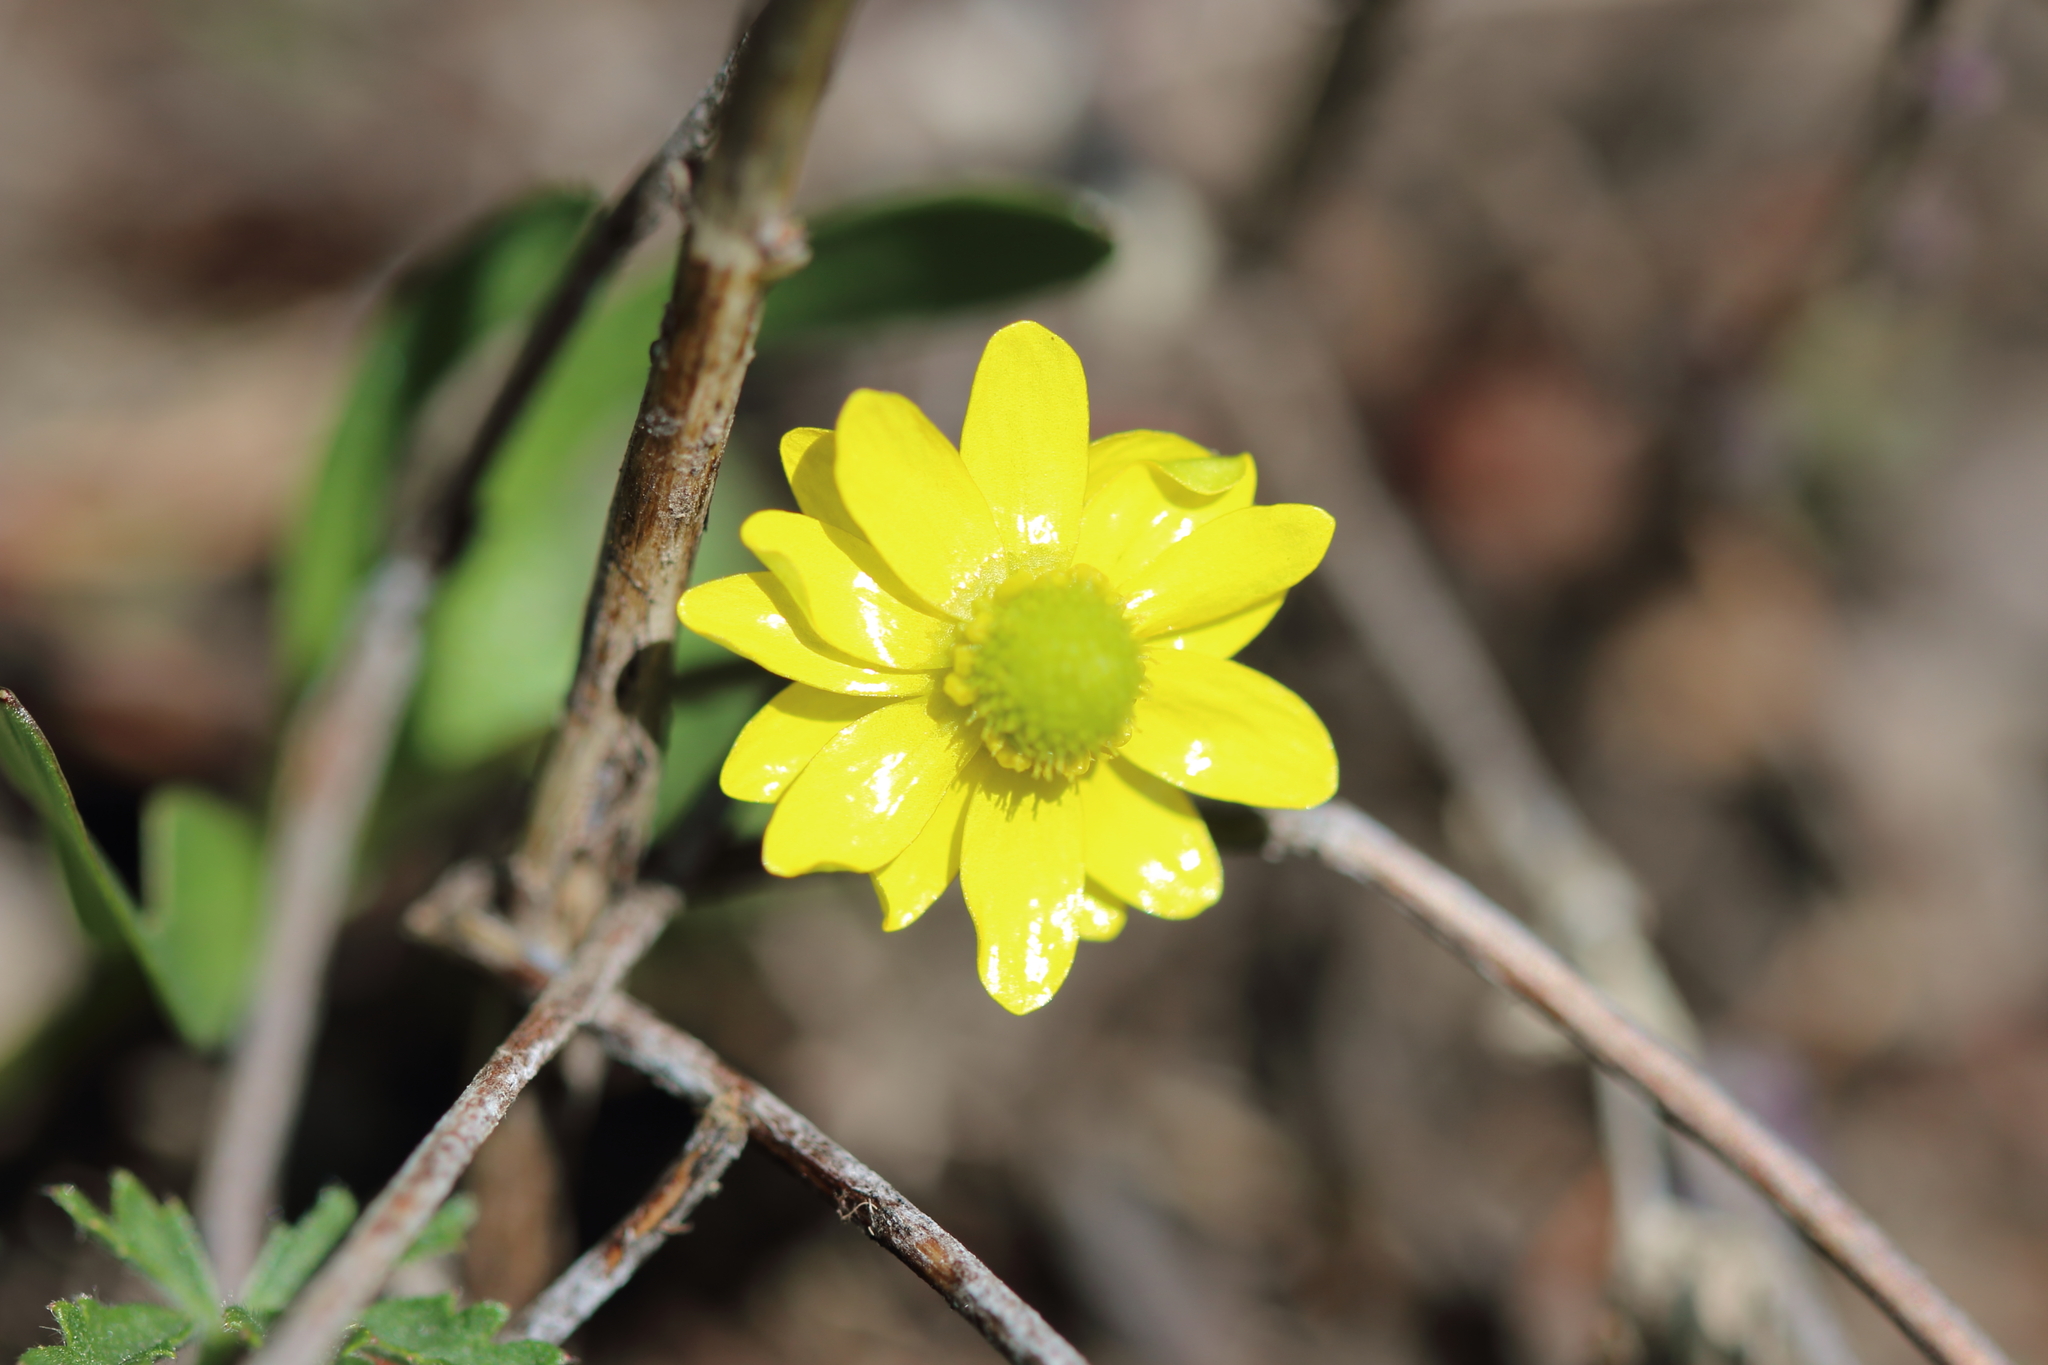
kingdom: Plantae
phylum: Tracheophyta
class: Magnoliopsida
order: Ranunculales
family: Ranunculaceae
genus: Ranunculus
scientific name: Ranunculus glaberrimus
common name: Sagebrush buttercup
